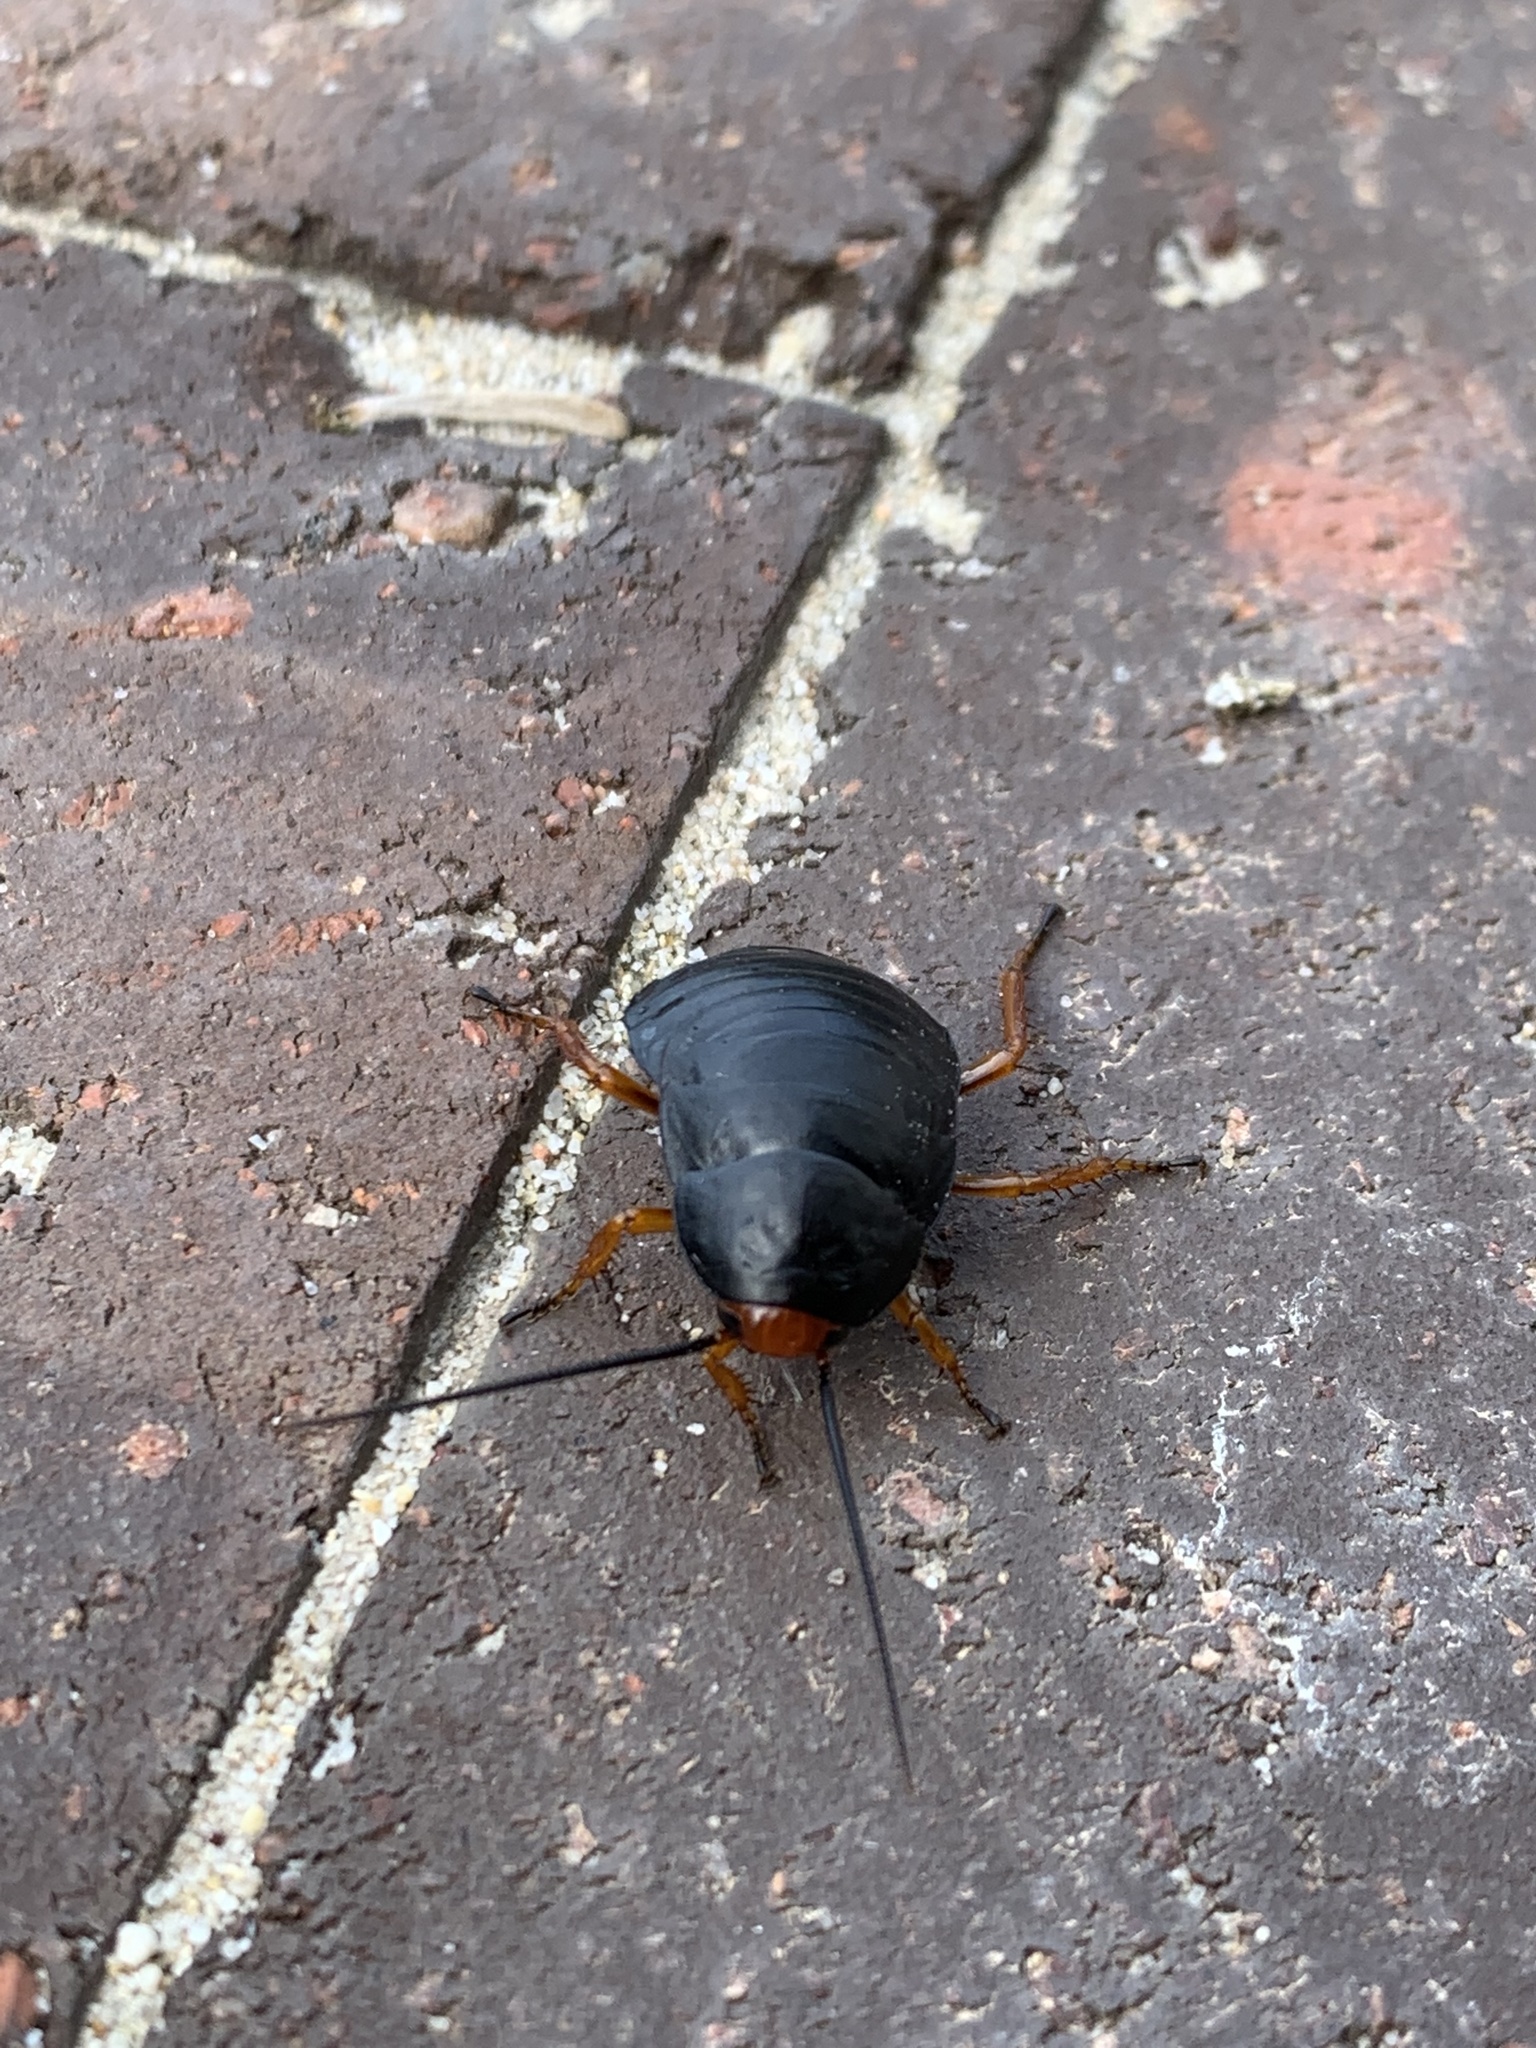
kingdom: Animalia
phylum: Arthropoda
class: Insecta
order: Blattodea
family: Blattidae
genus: Deropeltis
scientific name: Deropeltis erythrocephala
